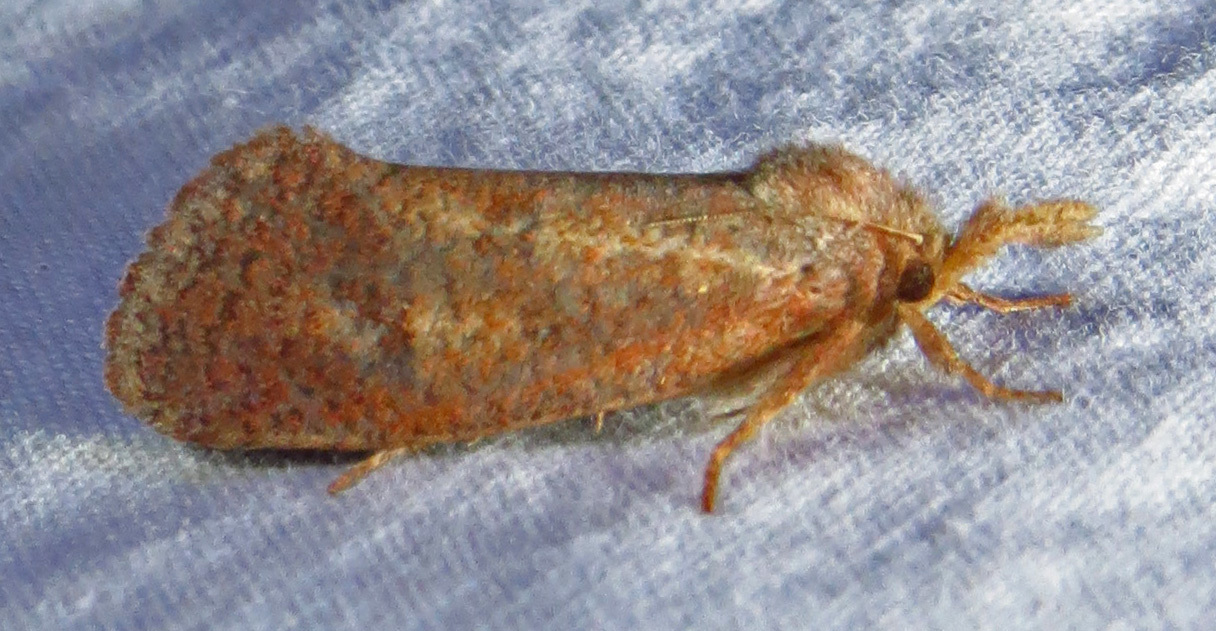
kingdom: Animalia
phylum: Arthropoda
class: Insecta
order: Lepidoptera
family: Tineidae
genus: Acrolophus
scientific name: Acrolophus plumifrontella
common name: Eastern grass tubeworm moth
